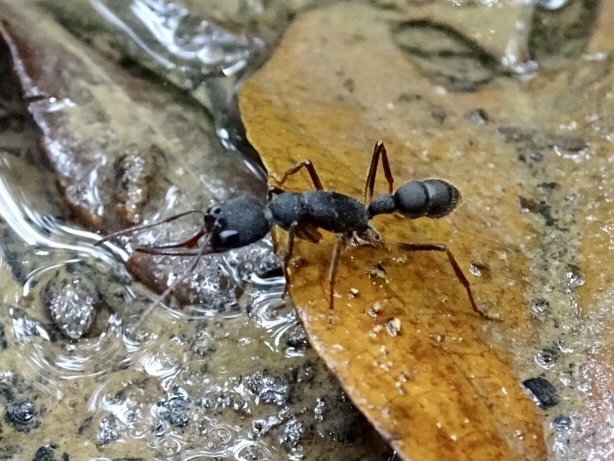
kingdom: Animalia
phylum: Arthropoda
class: Insecta
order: Hymenoptera
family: Formicidae
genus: Harpegnathos
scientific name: Harpegnathos venator
